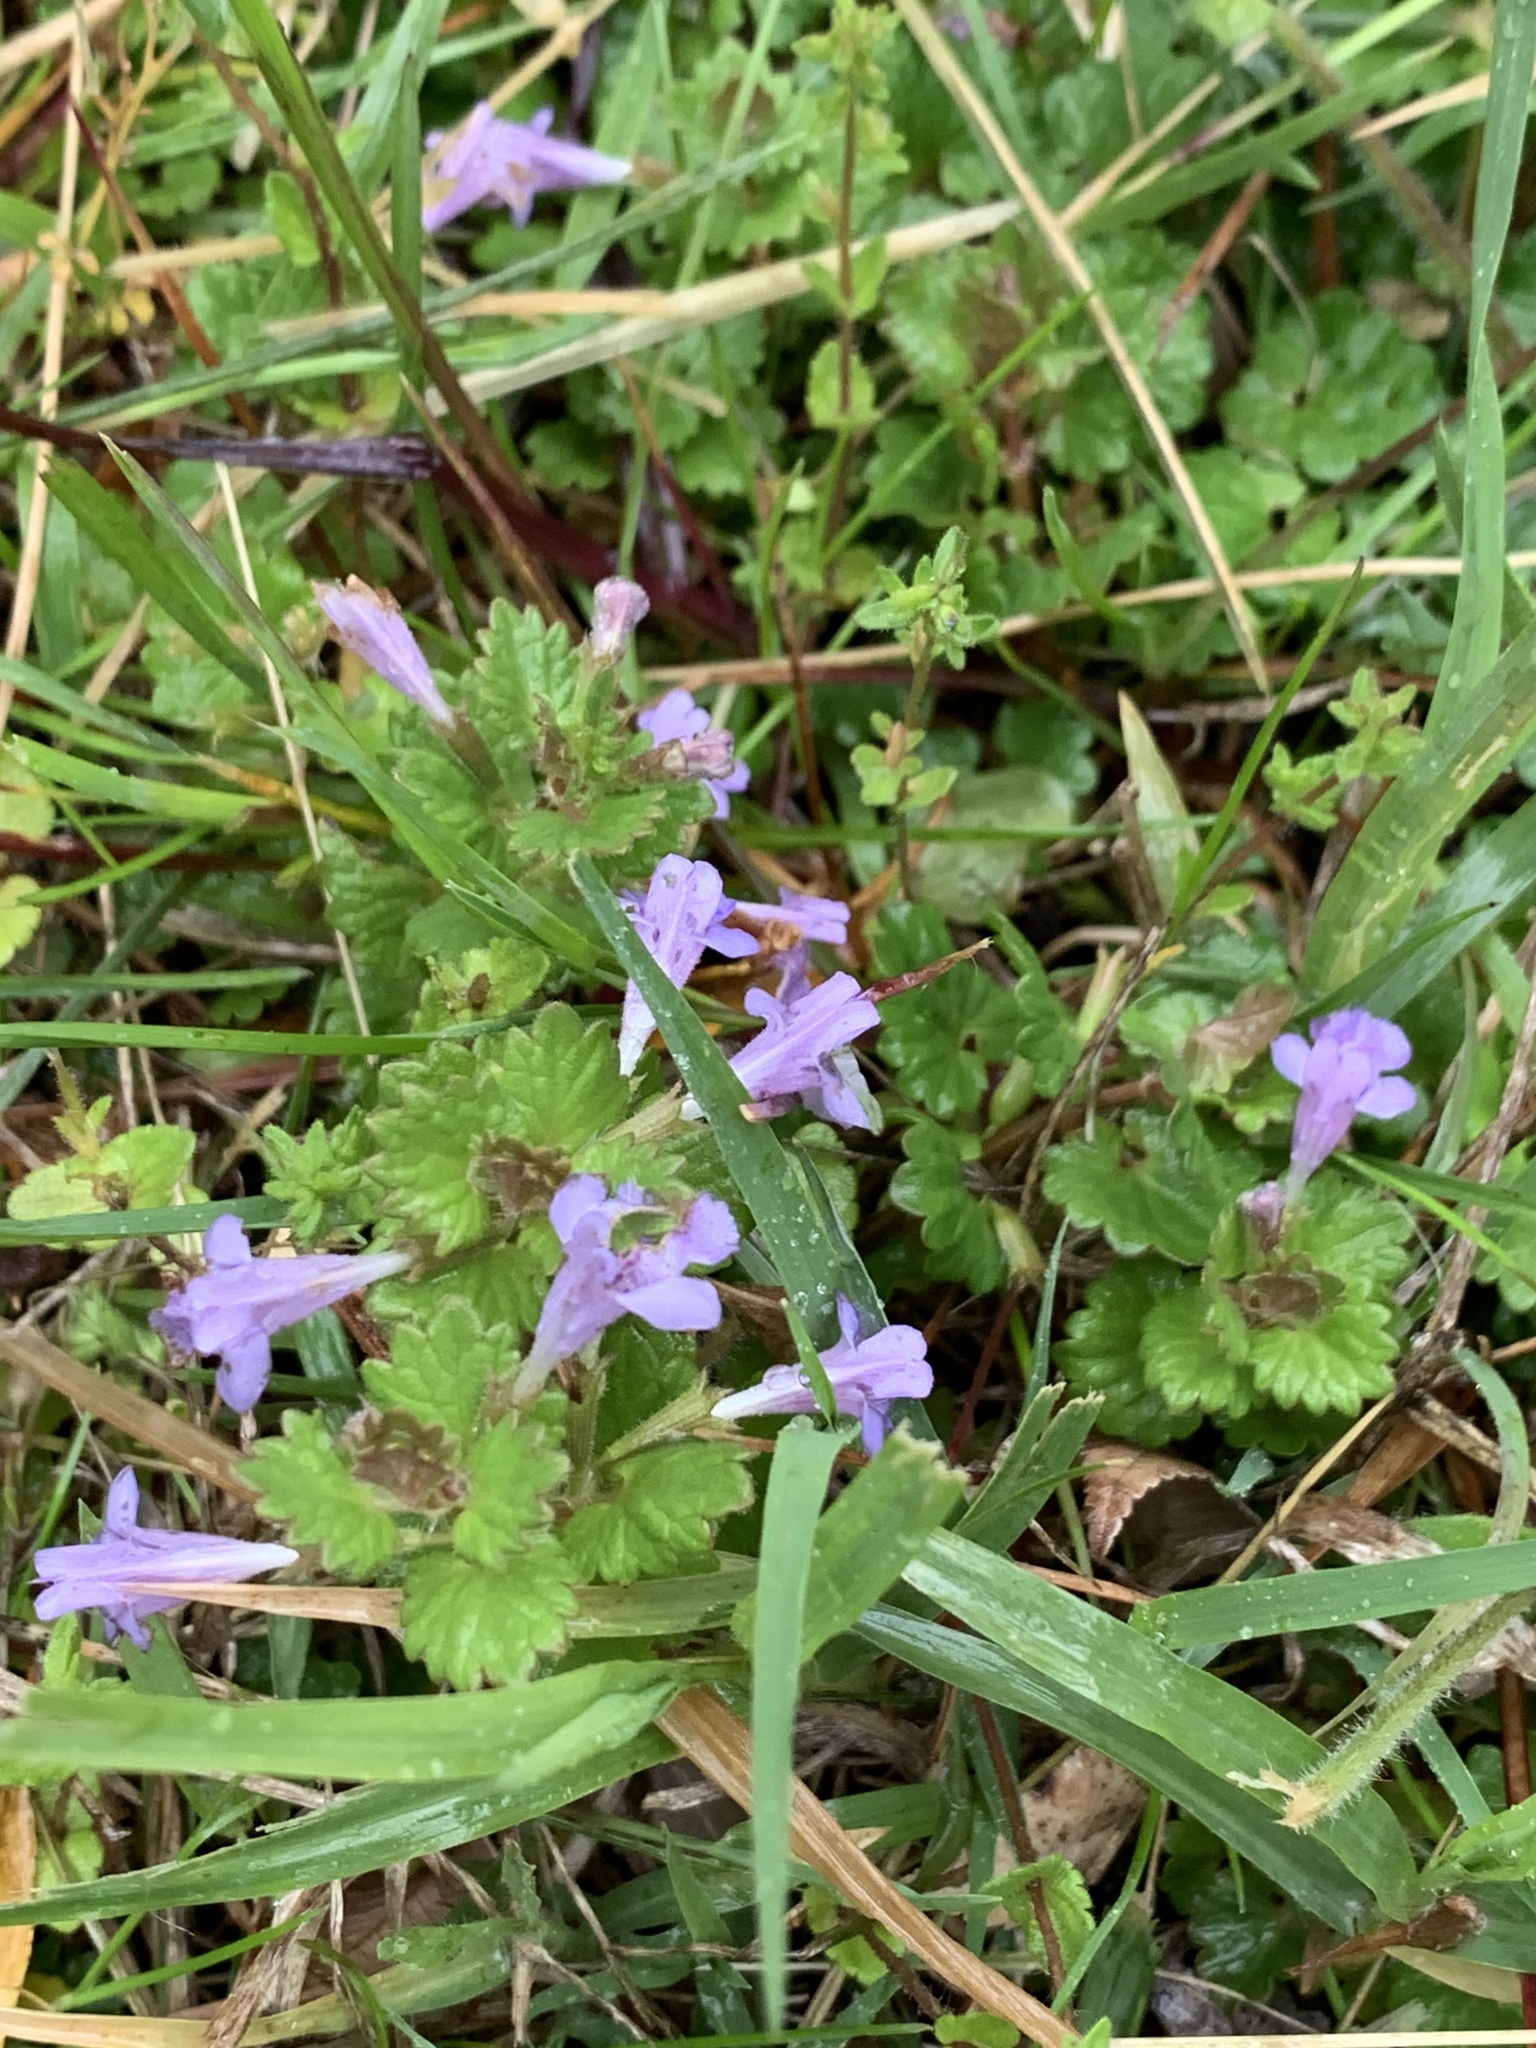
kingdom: Plantae
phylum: Tracheophyta
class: Magnoliopsida
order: Lamiales
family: Lamiaceae
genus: Glechoma
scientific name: Glechoma hederacea
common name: Ground ivy
